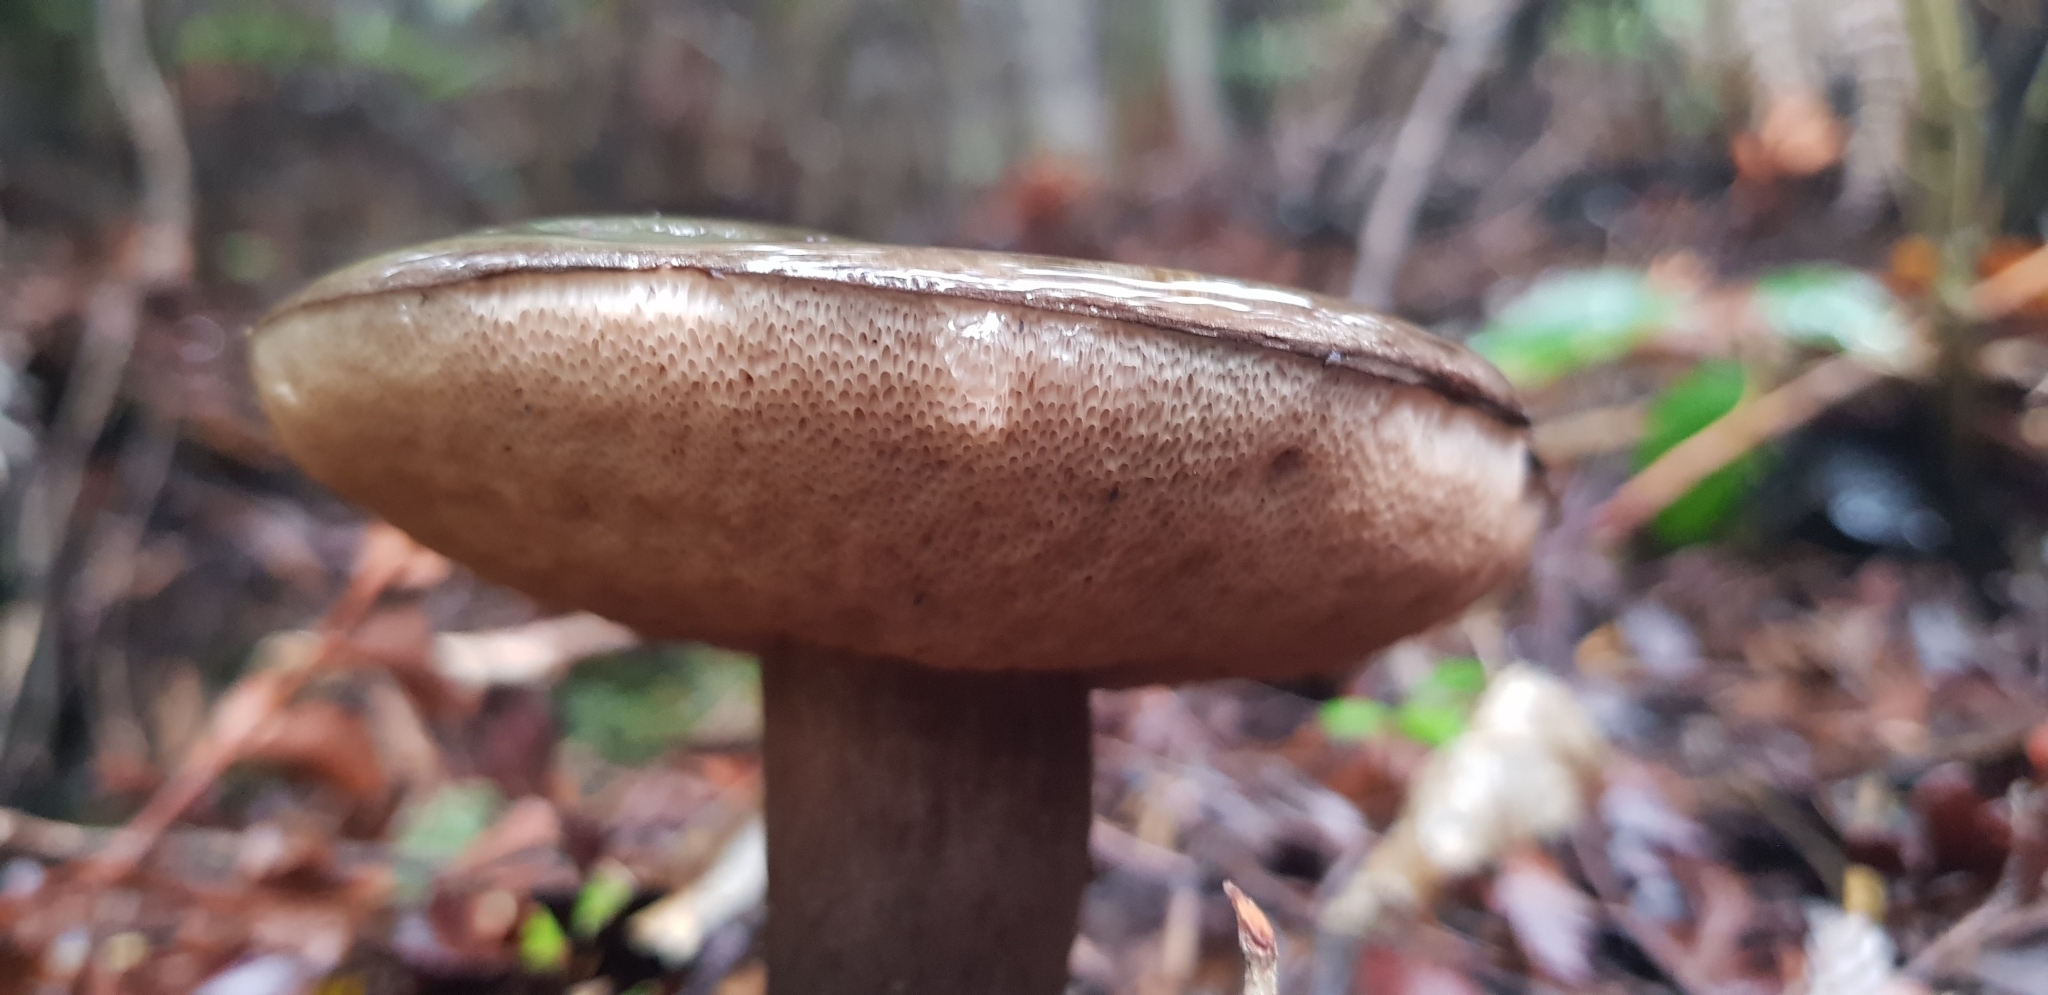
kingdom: Fungi
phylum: Basidiomycota
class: Agaricomycetes
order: Boletales
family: Boletaceae
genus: Porphyrellus
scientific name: Porphyrellus formosus
